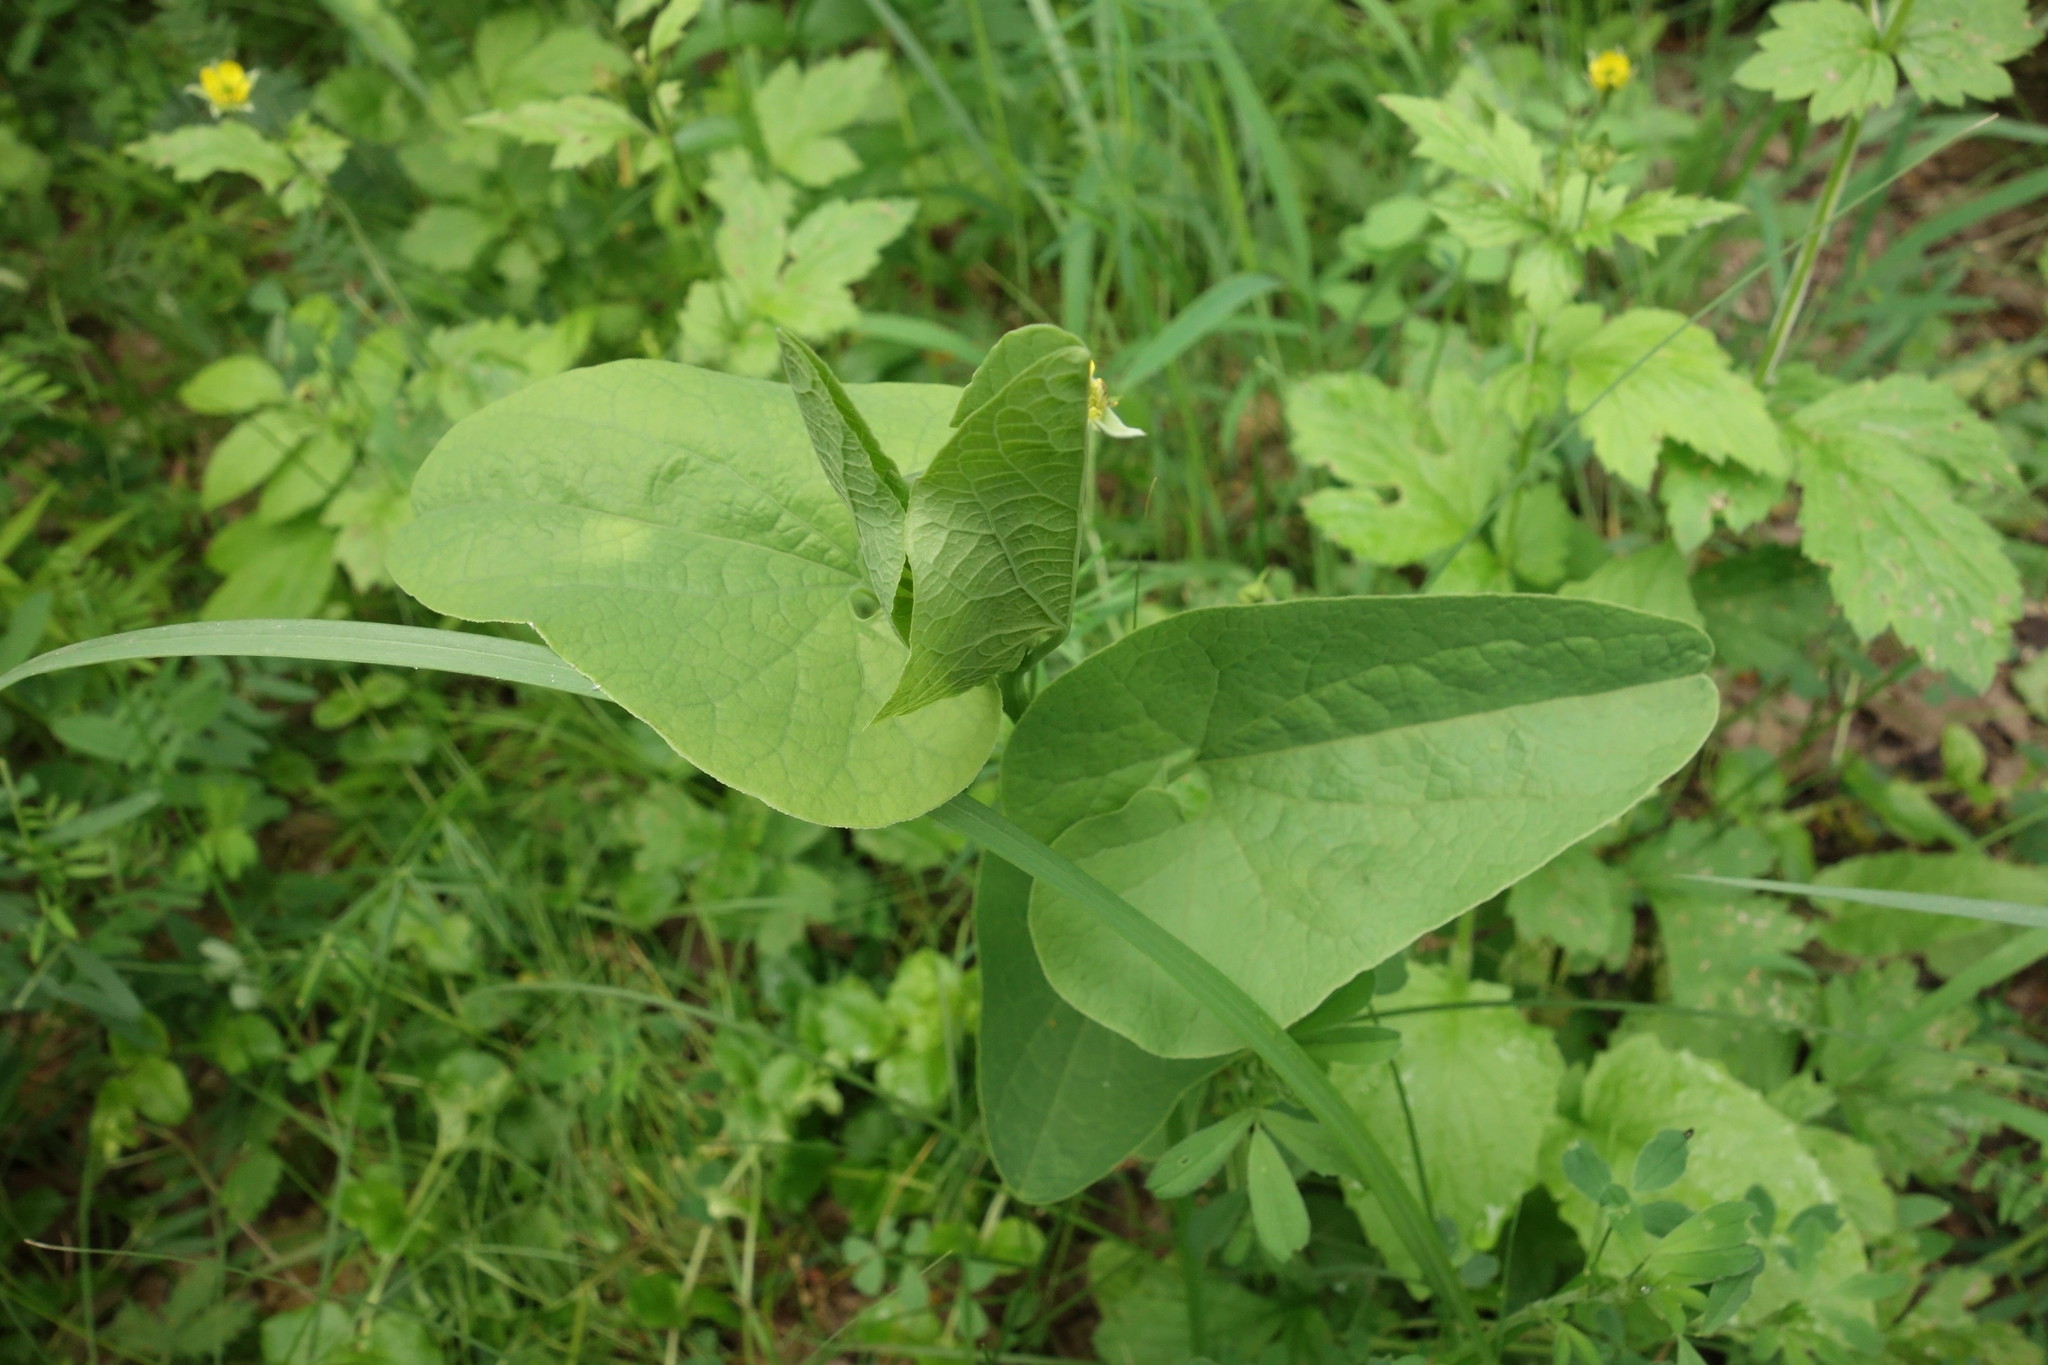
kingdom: Plantae
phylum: Tracheophyta
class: Magnoliopsida
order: Piperales
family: Aristolochiaceae
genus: Aristolochia
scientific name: Aristolochia clematitis
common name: Birthwort
